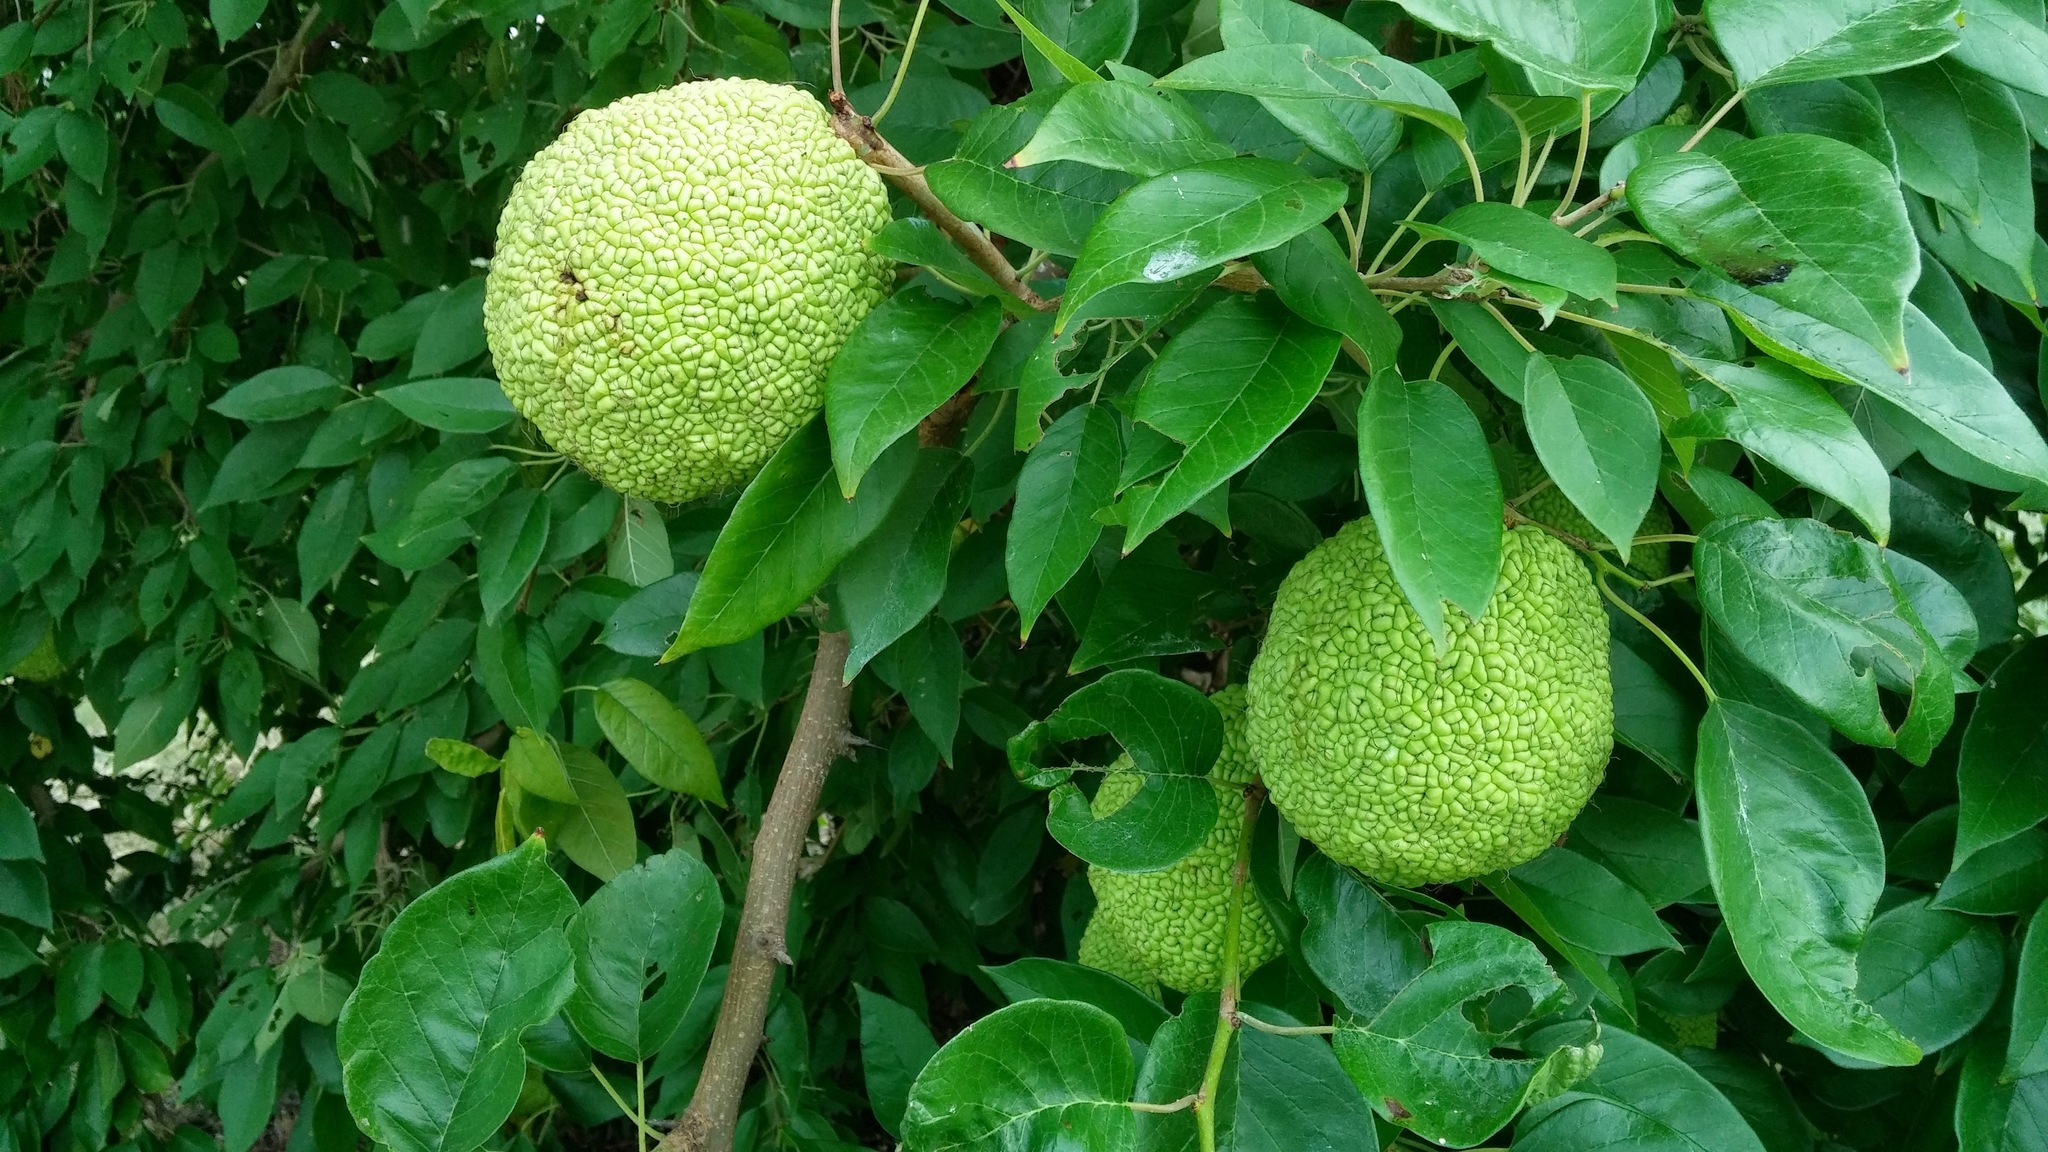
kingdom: Plantae
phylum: Tracheophyta
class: Magnoliopsida
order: Rosales
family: Moraceae
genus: Maclura
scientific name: Maclura pomifera
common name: Osage-orange
